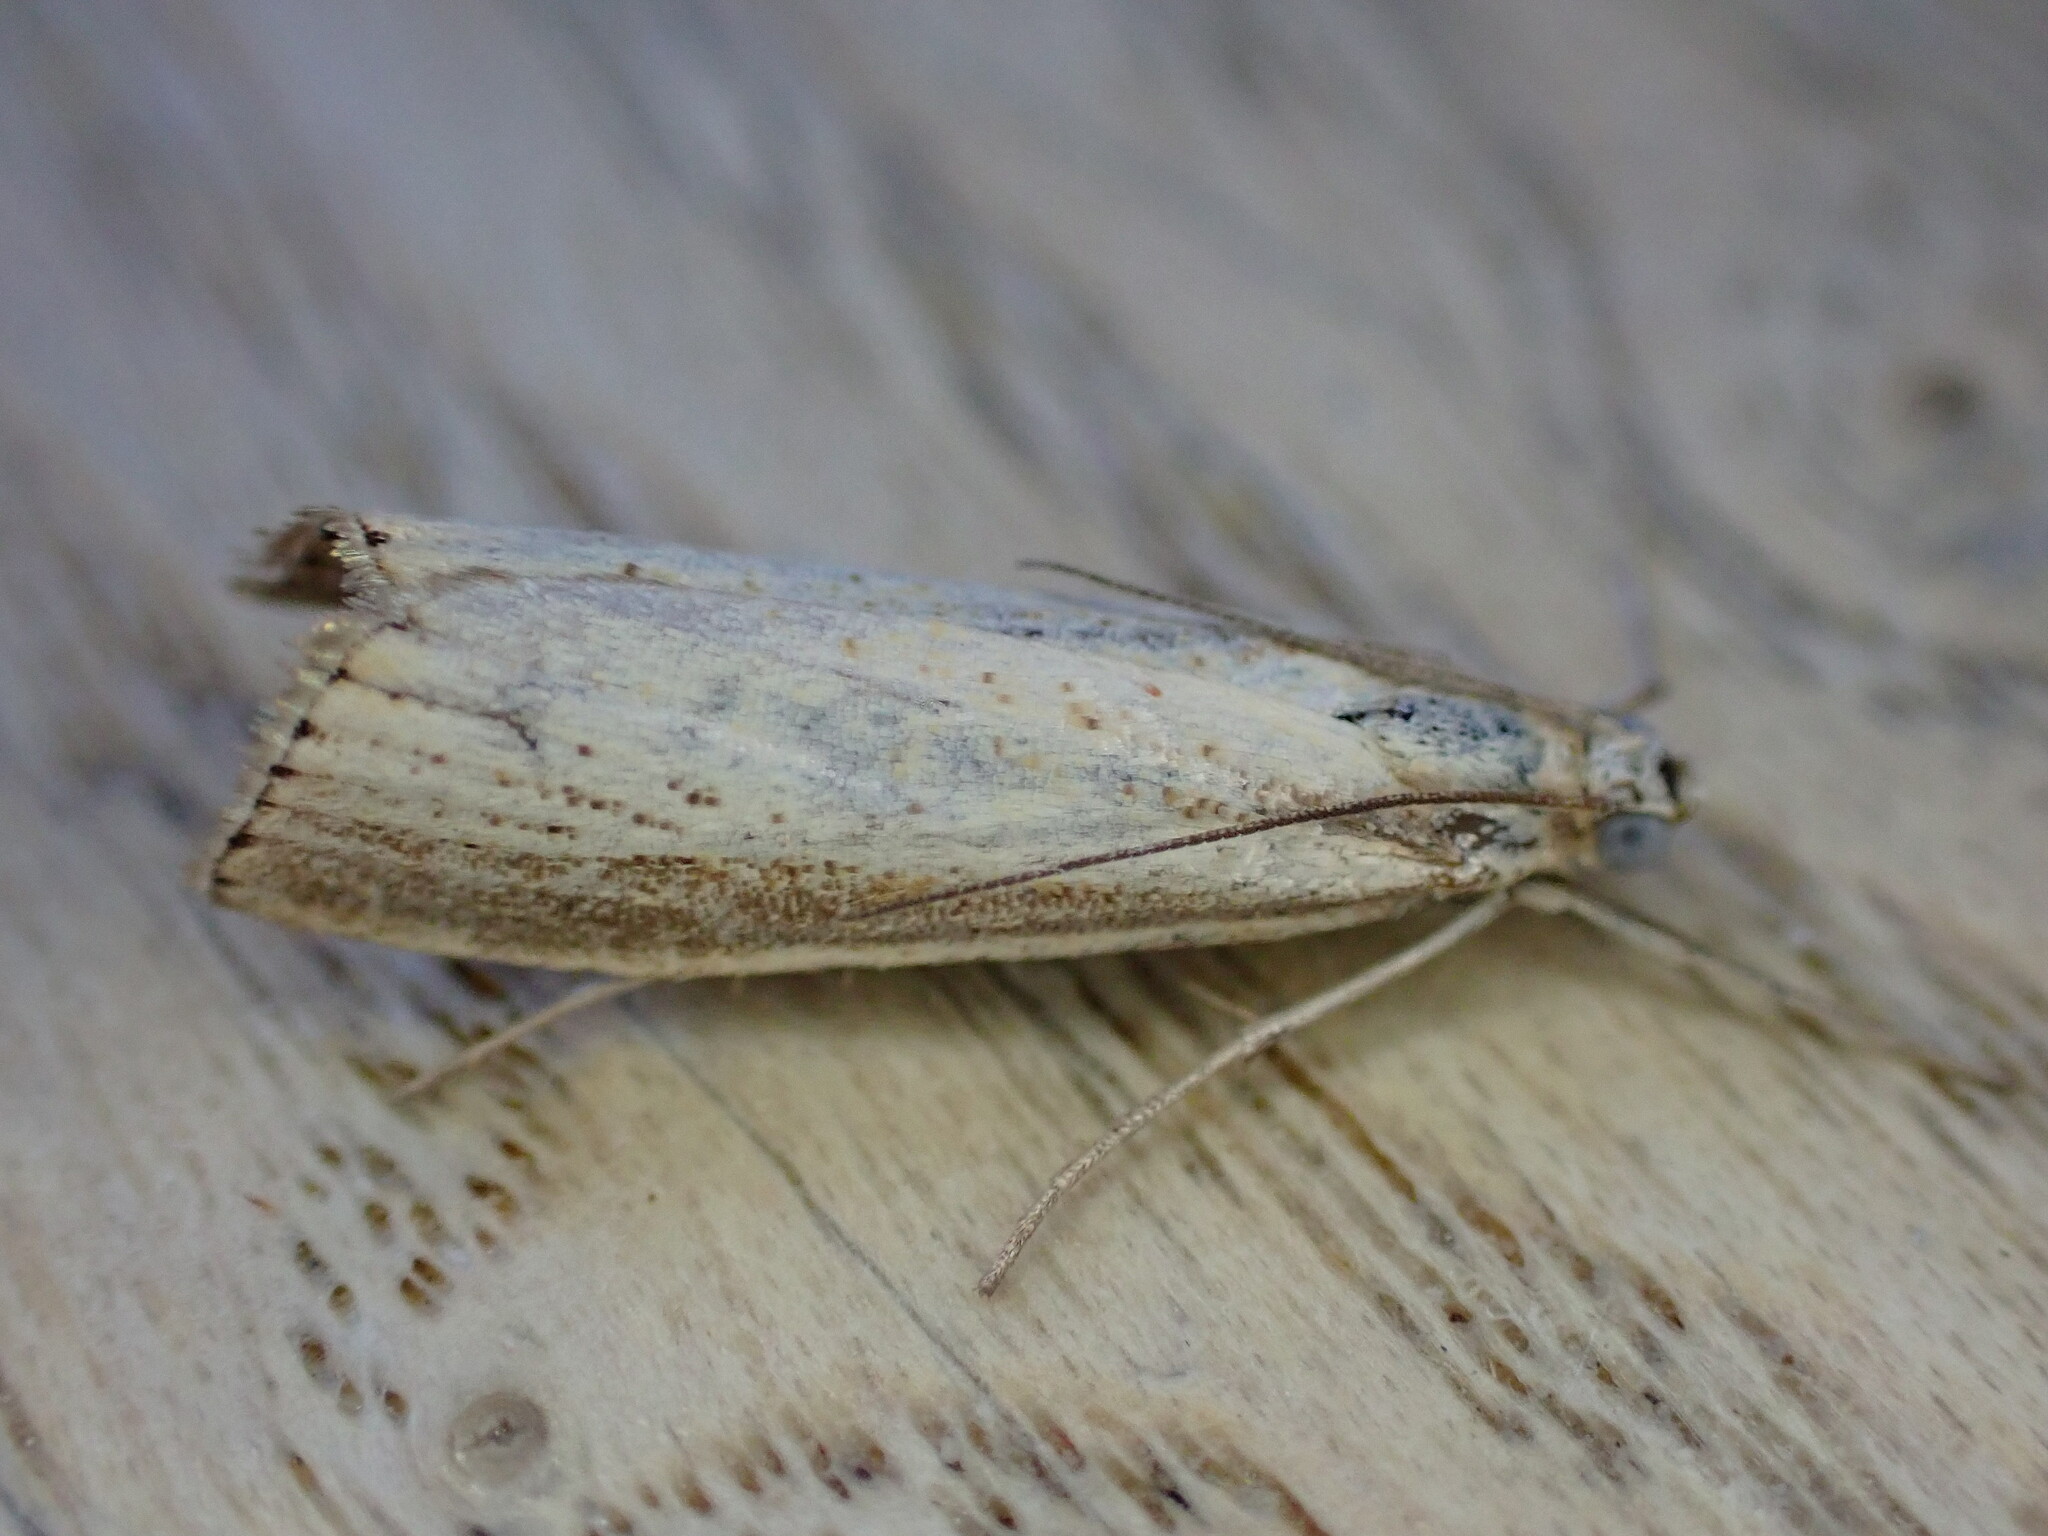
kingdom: Animalia
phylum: Arthropoda
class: Insecta
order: Lepidoptera
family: Crambidae
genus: Agriphila
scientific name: Agriphila straminella
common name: Straw grass-veneer
